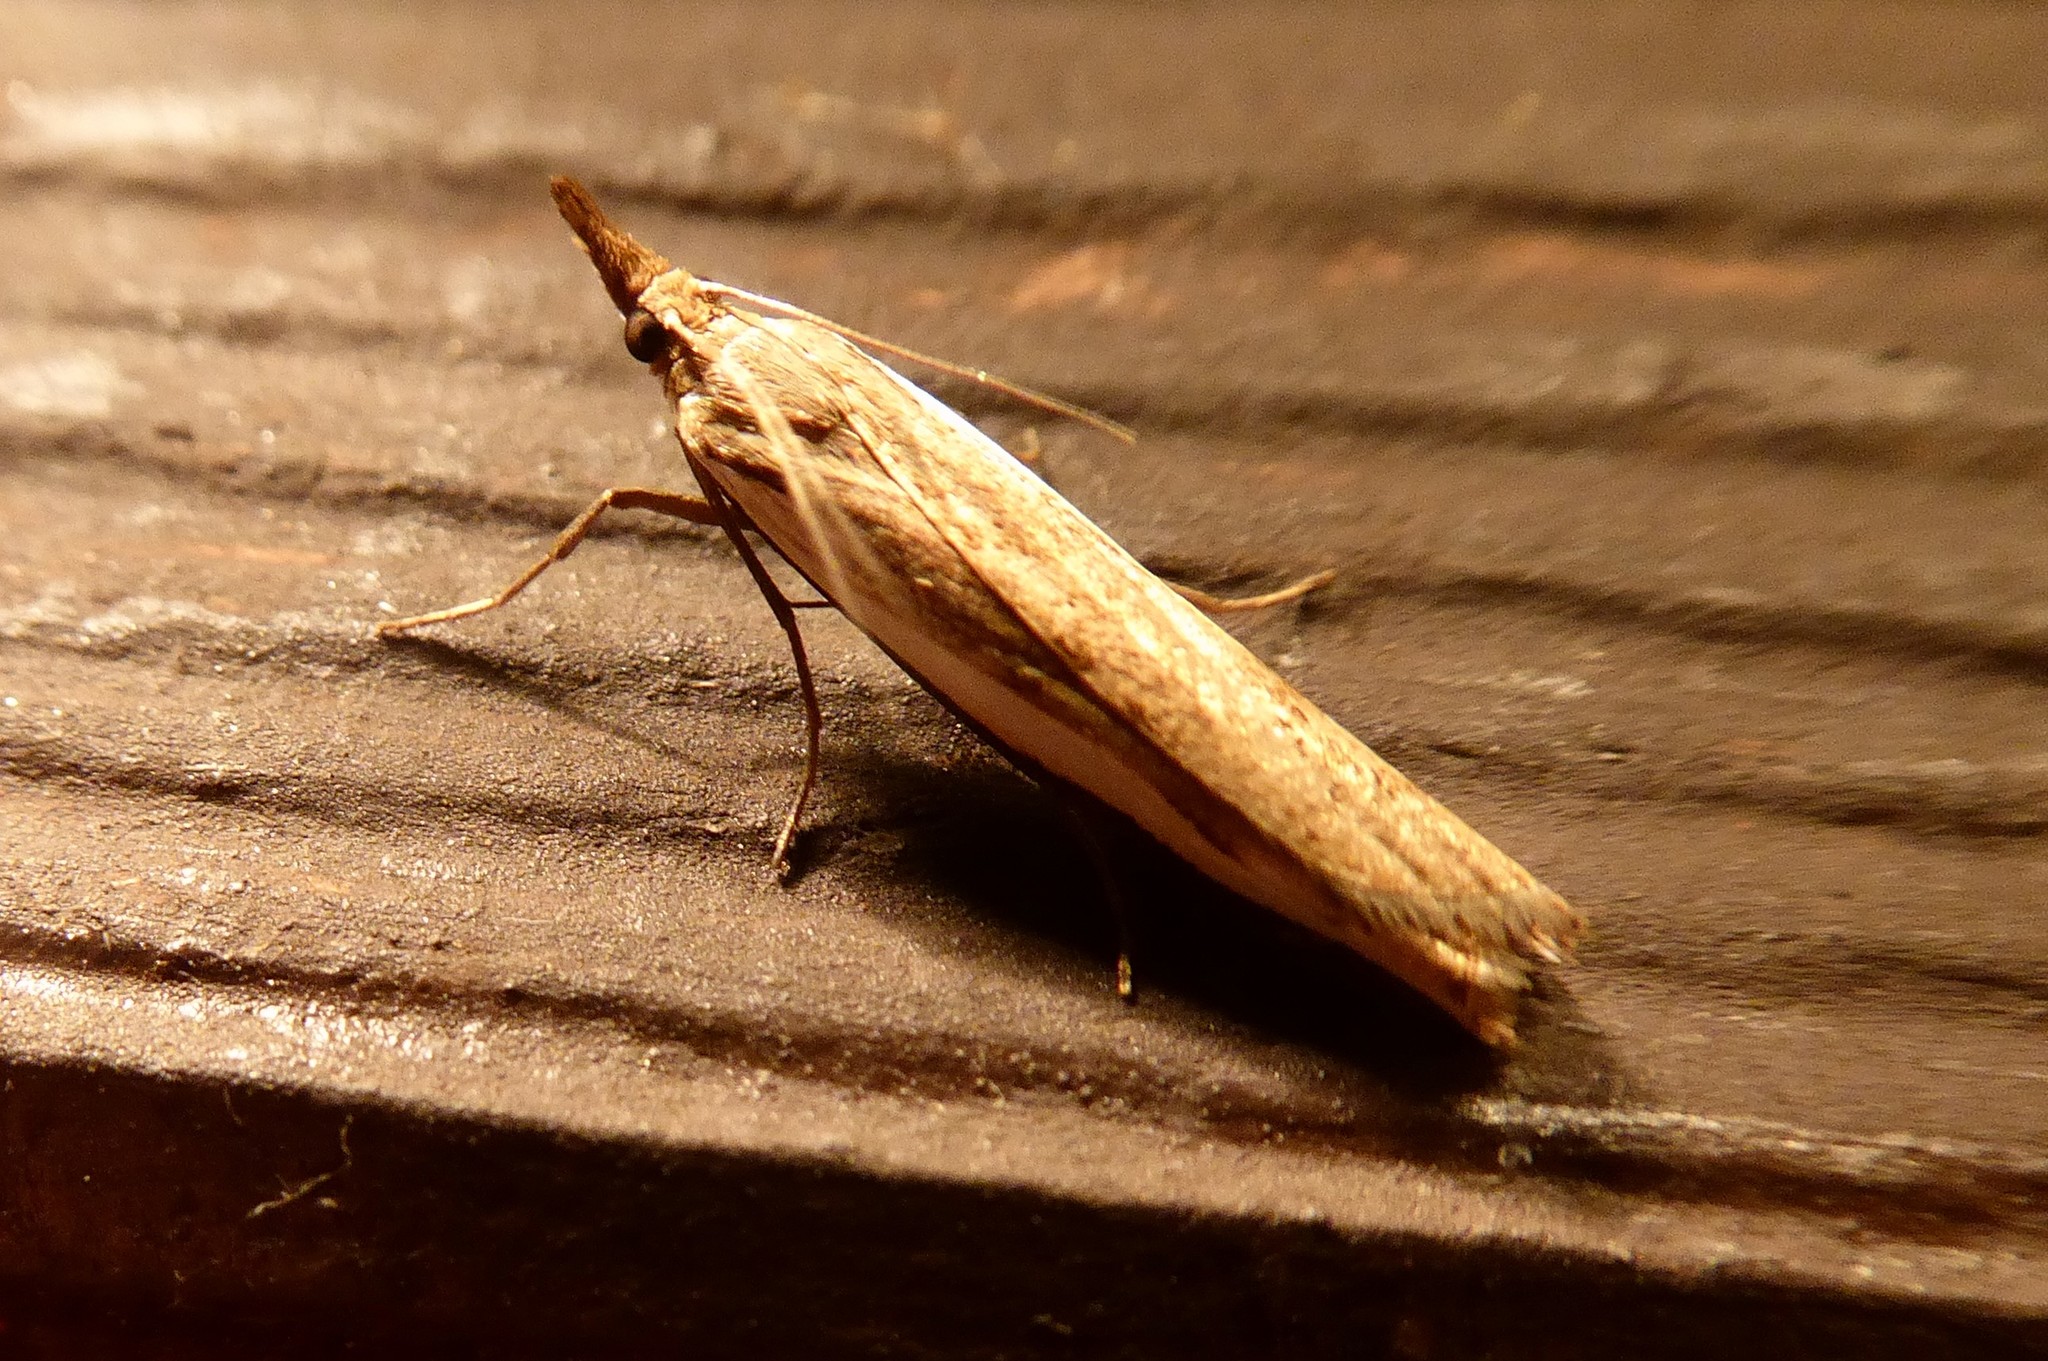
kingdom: Animalia
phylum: Arthropoda
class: Insecta
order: Lepidoptera
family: Crambidae
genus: Orocrambus
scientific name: Orocrambus flexuosellus
